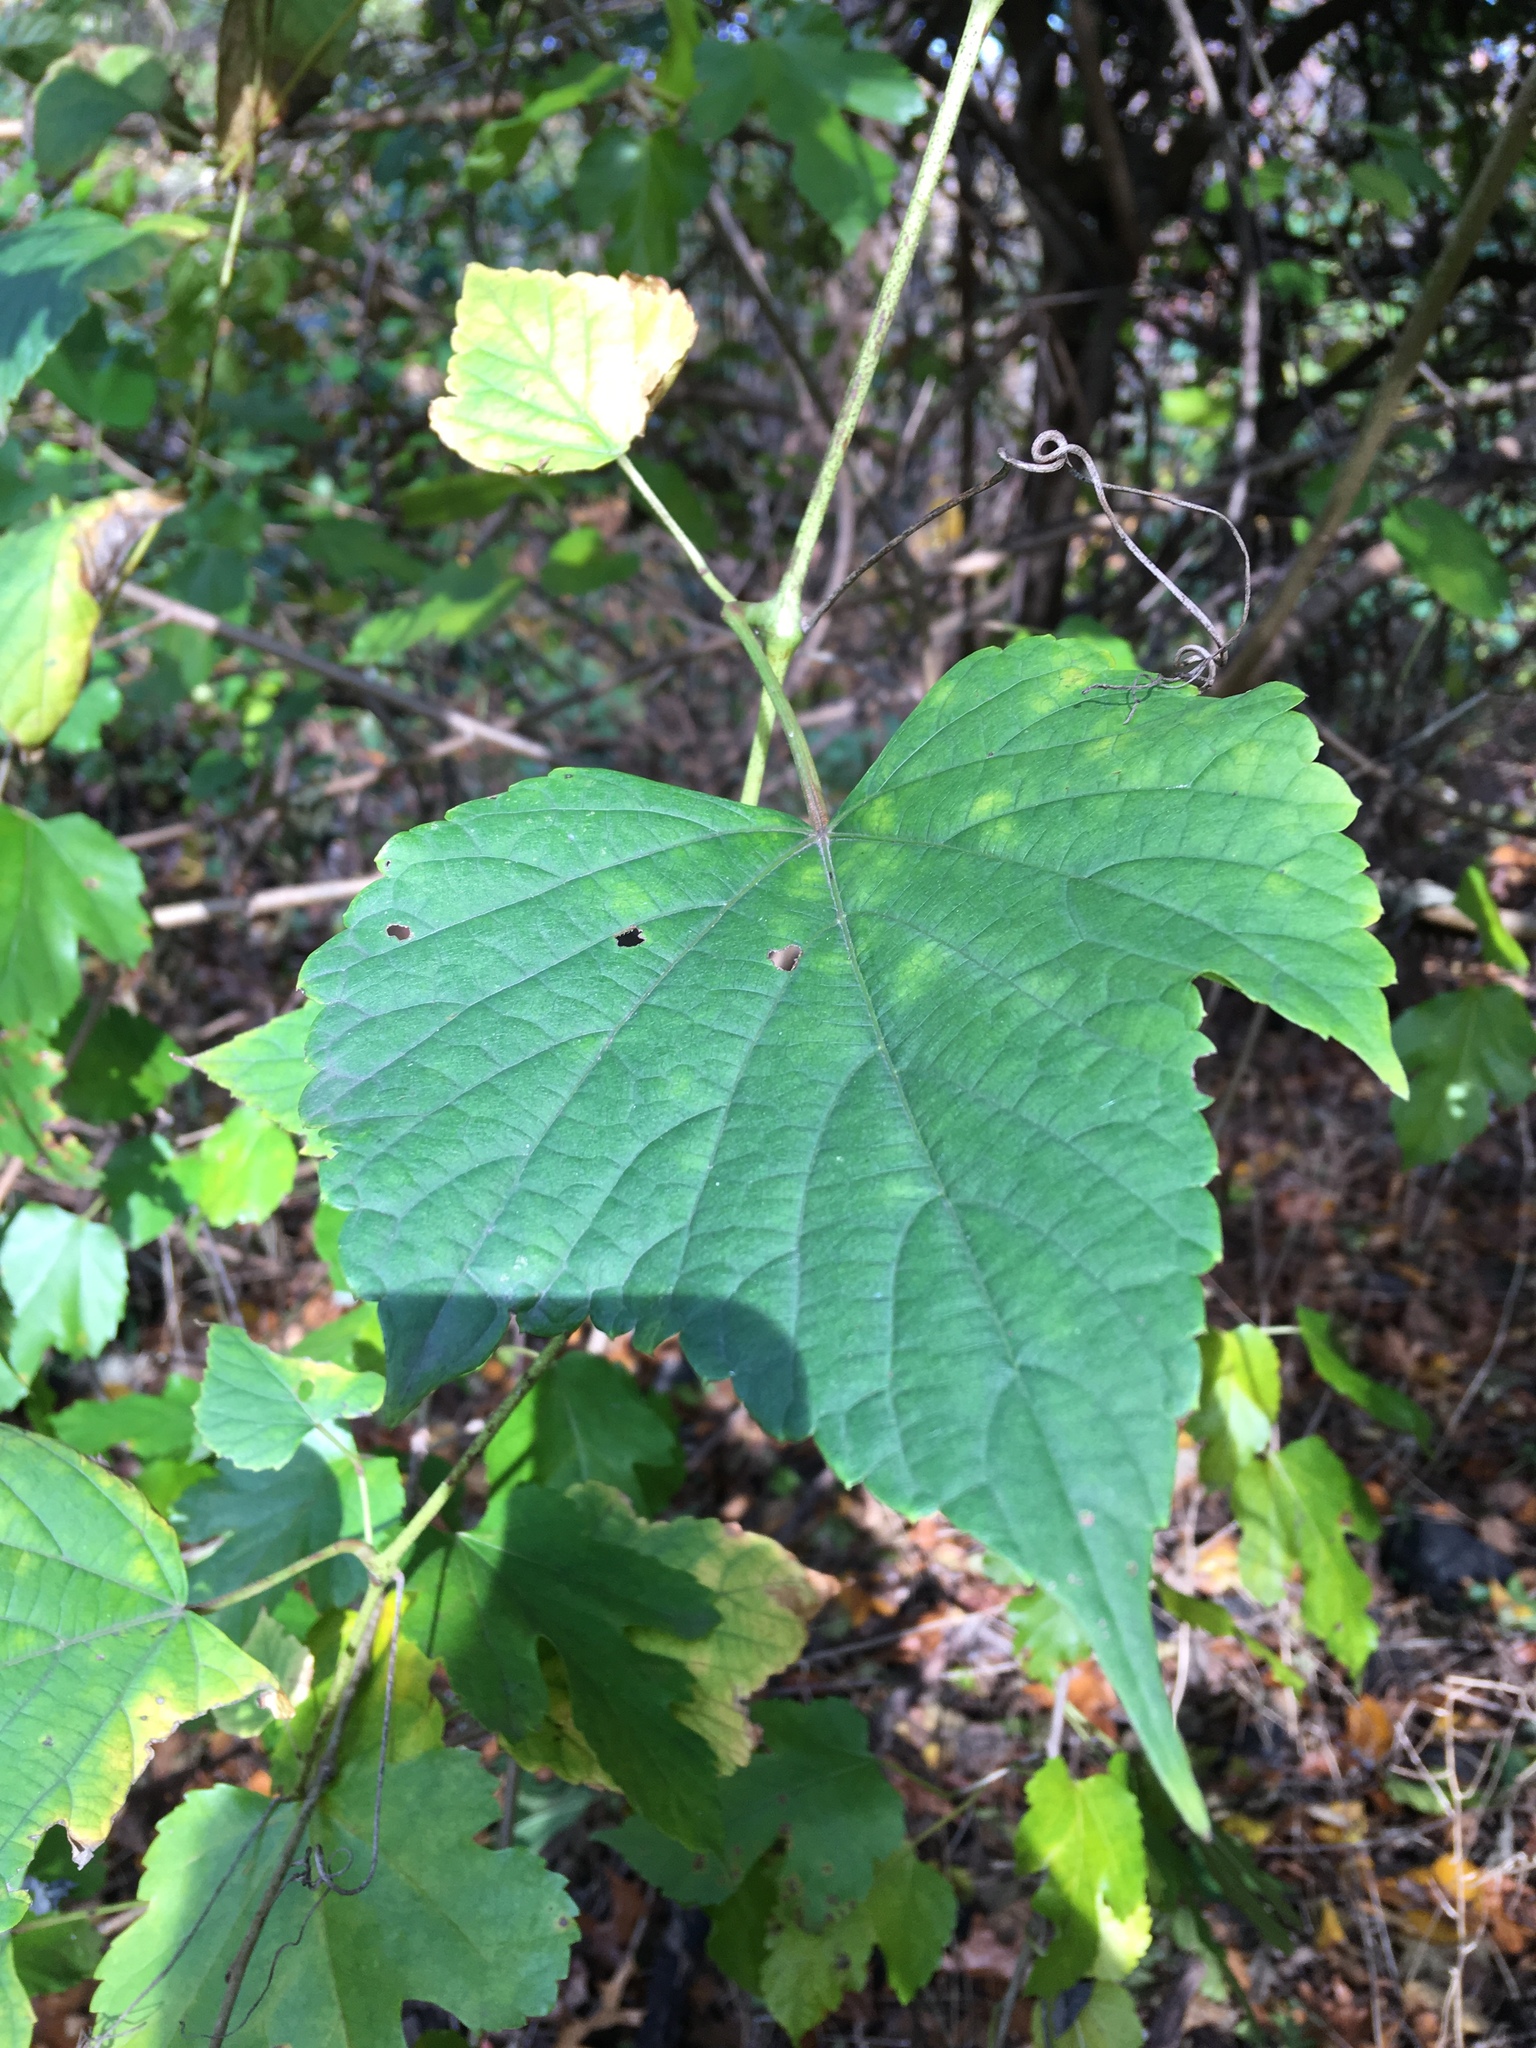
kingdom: Plantae
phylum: Tracheophyta
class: Magnoliopsida
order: Vitales
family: Vitaceae
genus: Ampelopsis
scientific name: Ampelopsis glandulosa
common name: Amur peppervine
